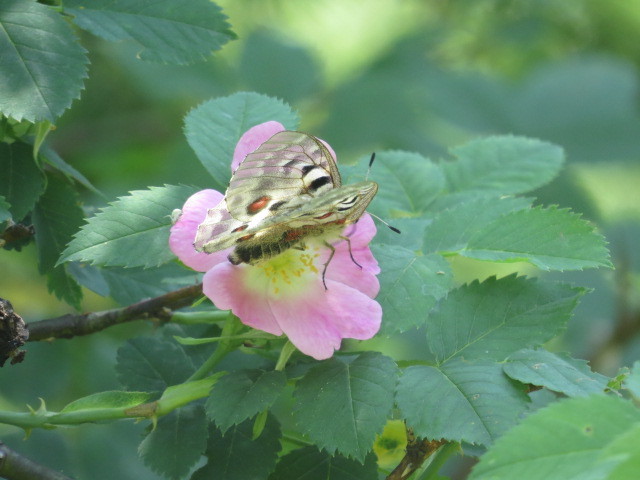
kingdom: Animalia
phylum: Arthropoda
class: Insecta
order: Lepidoptera
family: Papilionidae
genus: Parnassius
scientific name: Parnassius apollo
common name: Apollo
